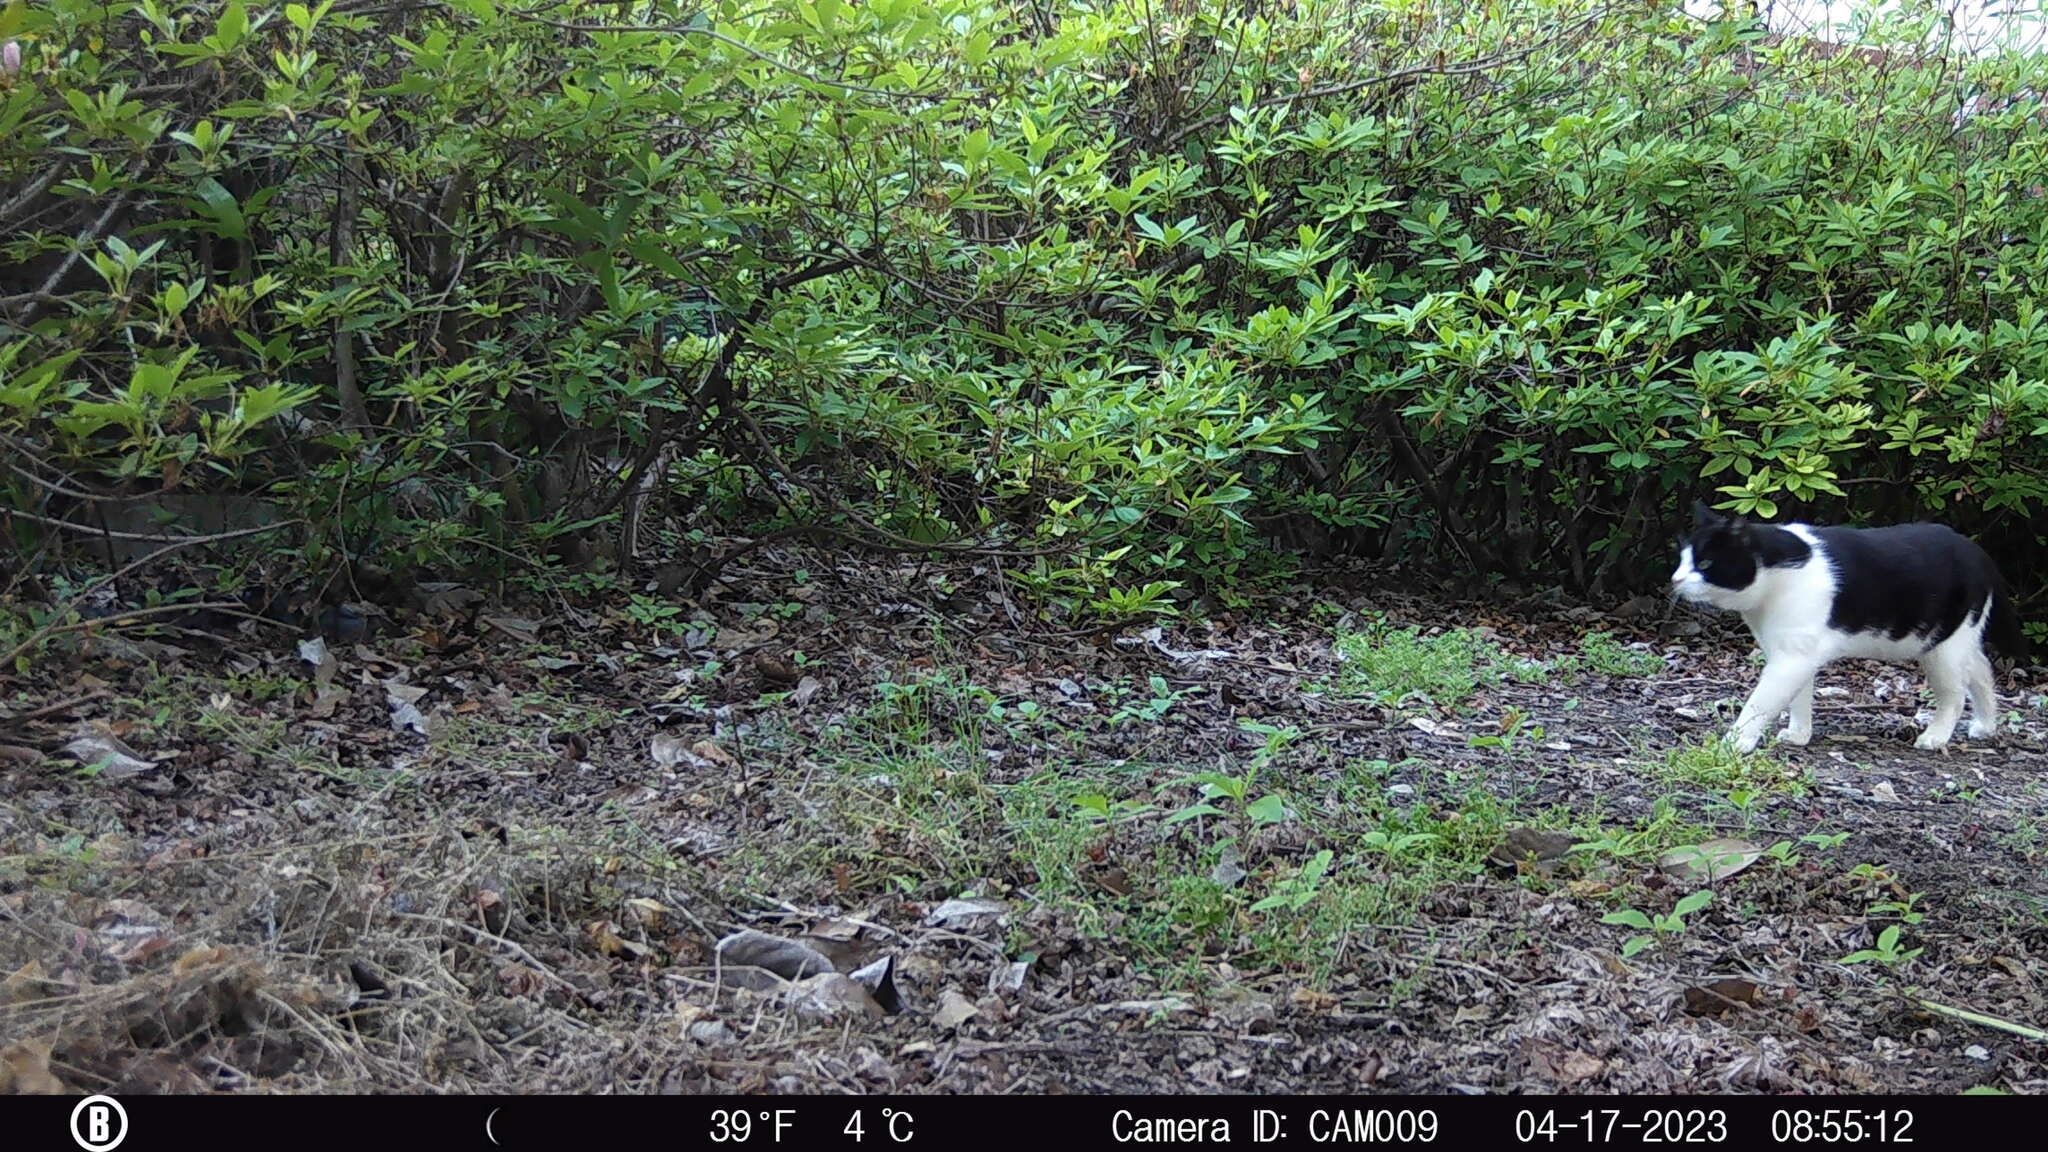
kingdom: Animalia
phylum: Chordata
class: Mammalia
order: Carnivora
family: Felidae
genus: Felis
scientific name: Felis catus
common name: Domestic cat
